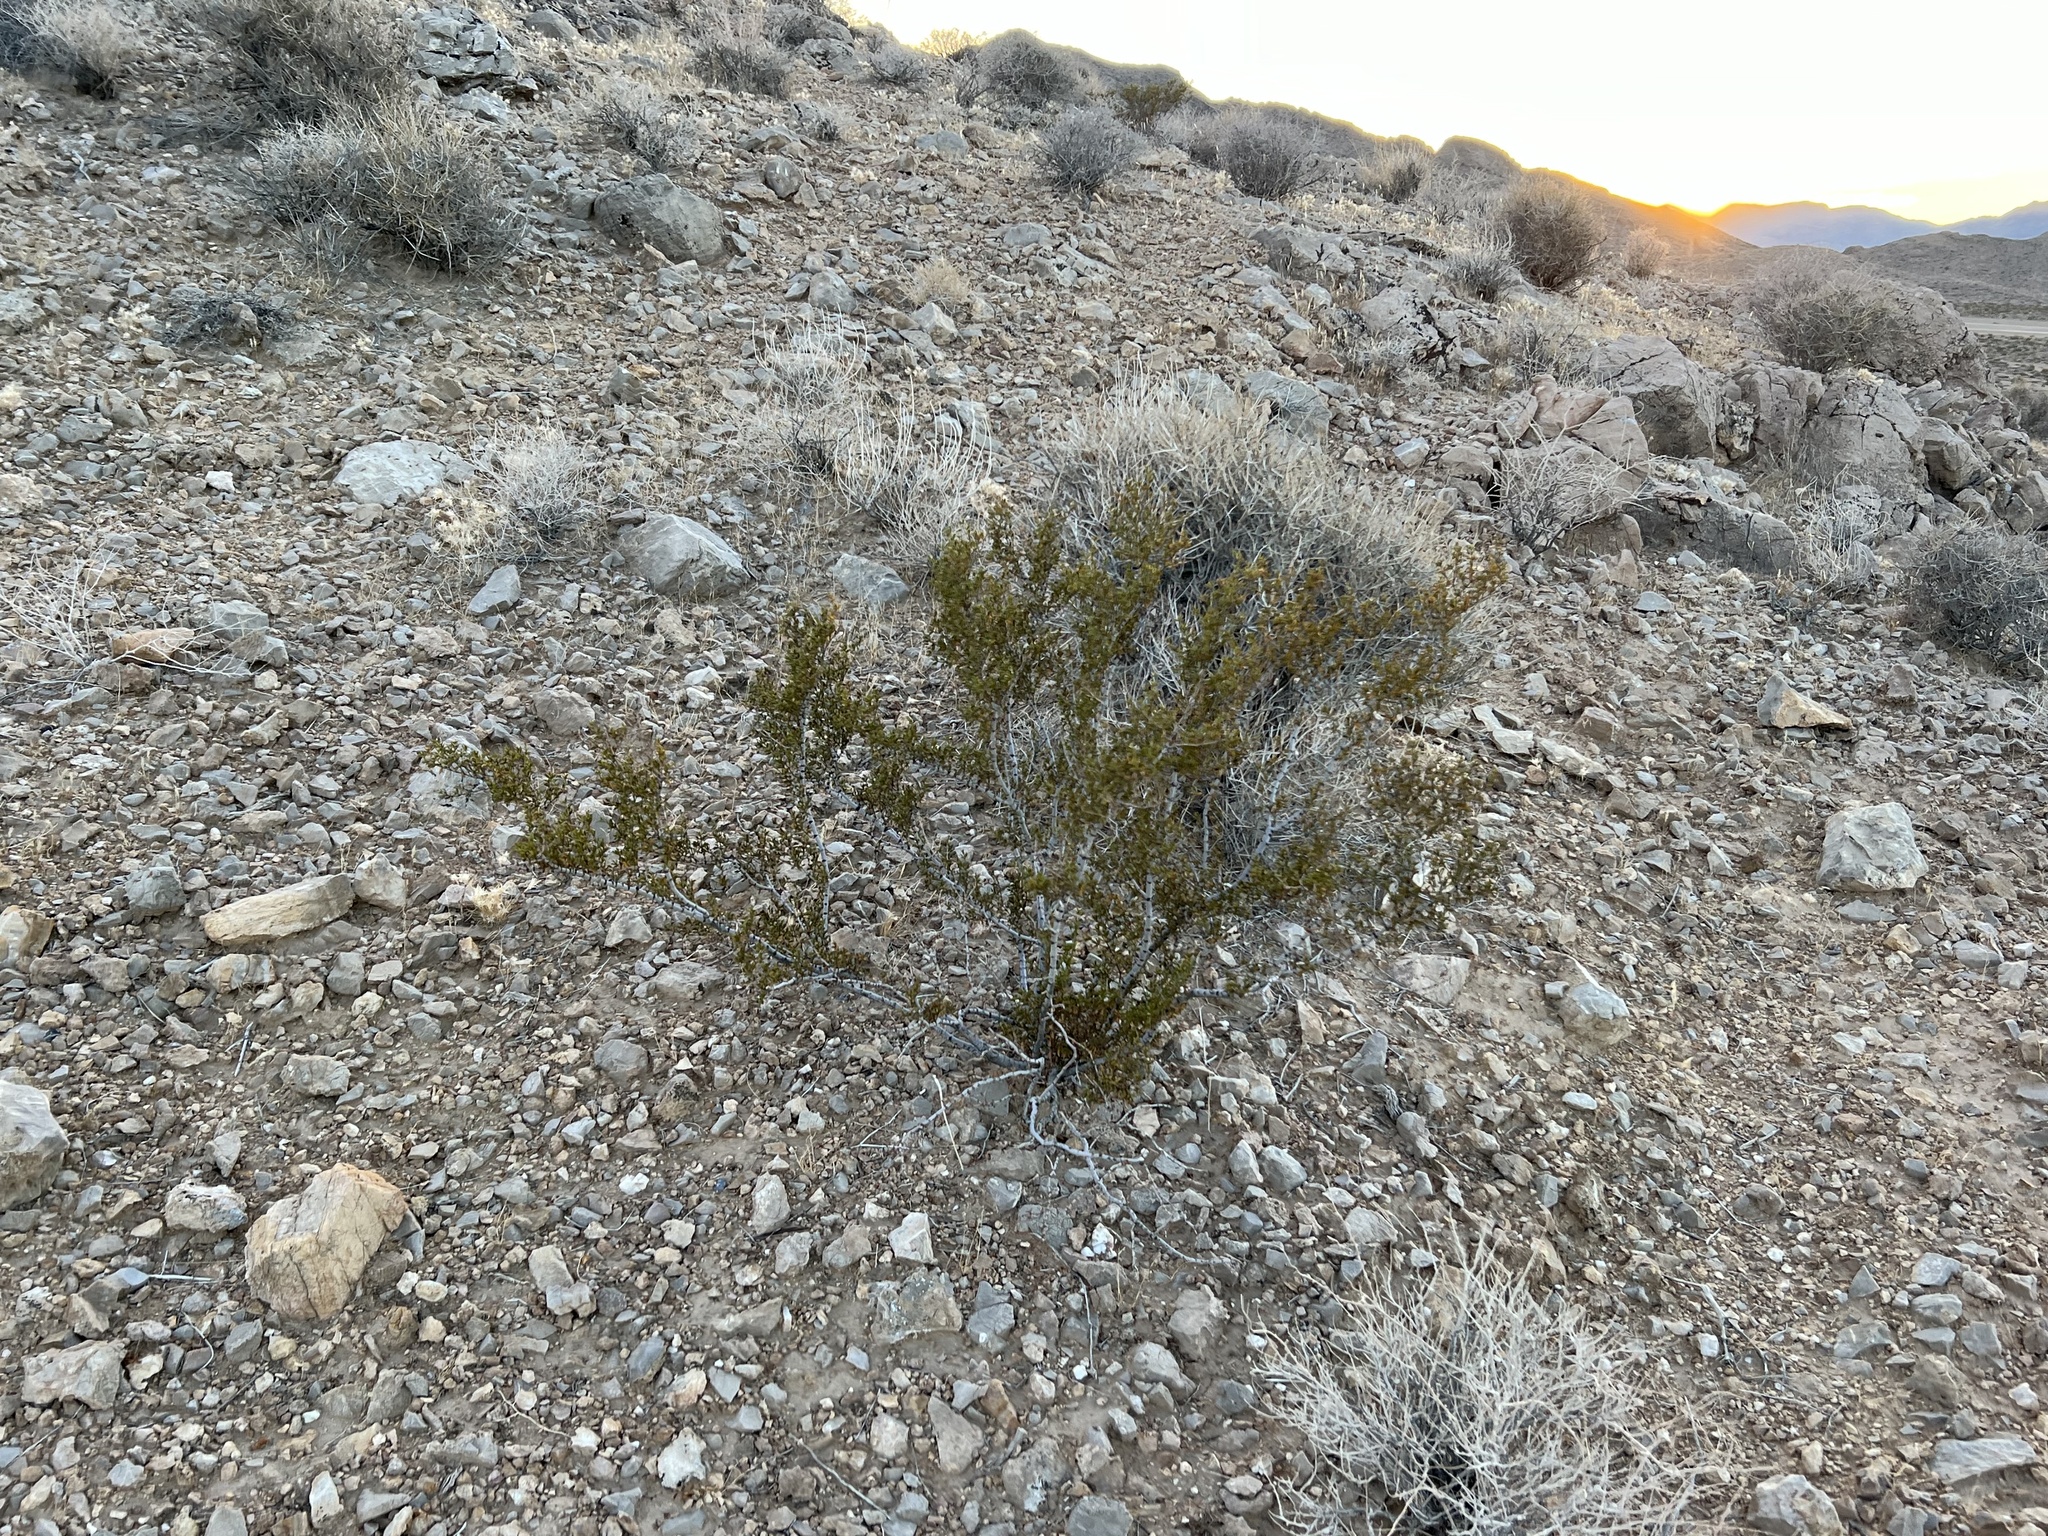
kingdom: Plantae
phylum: Tracheophyta
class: Magnoliopsida
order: Zygophyllales
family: Zygophyllaceae
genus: Larrea
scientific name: Larrea tridentata
